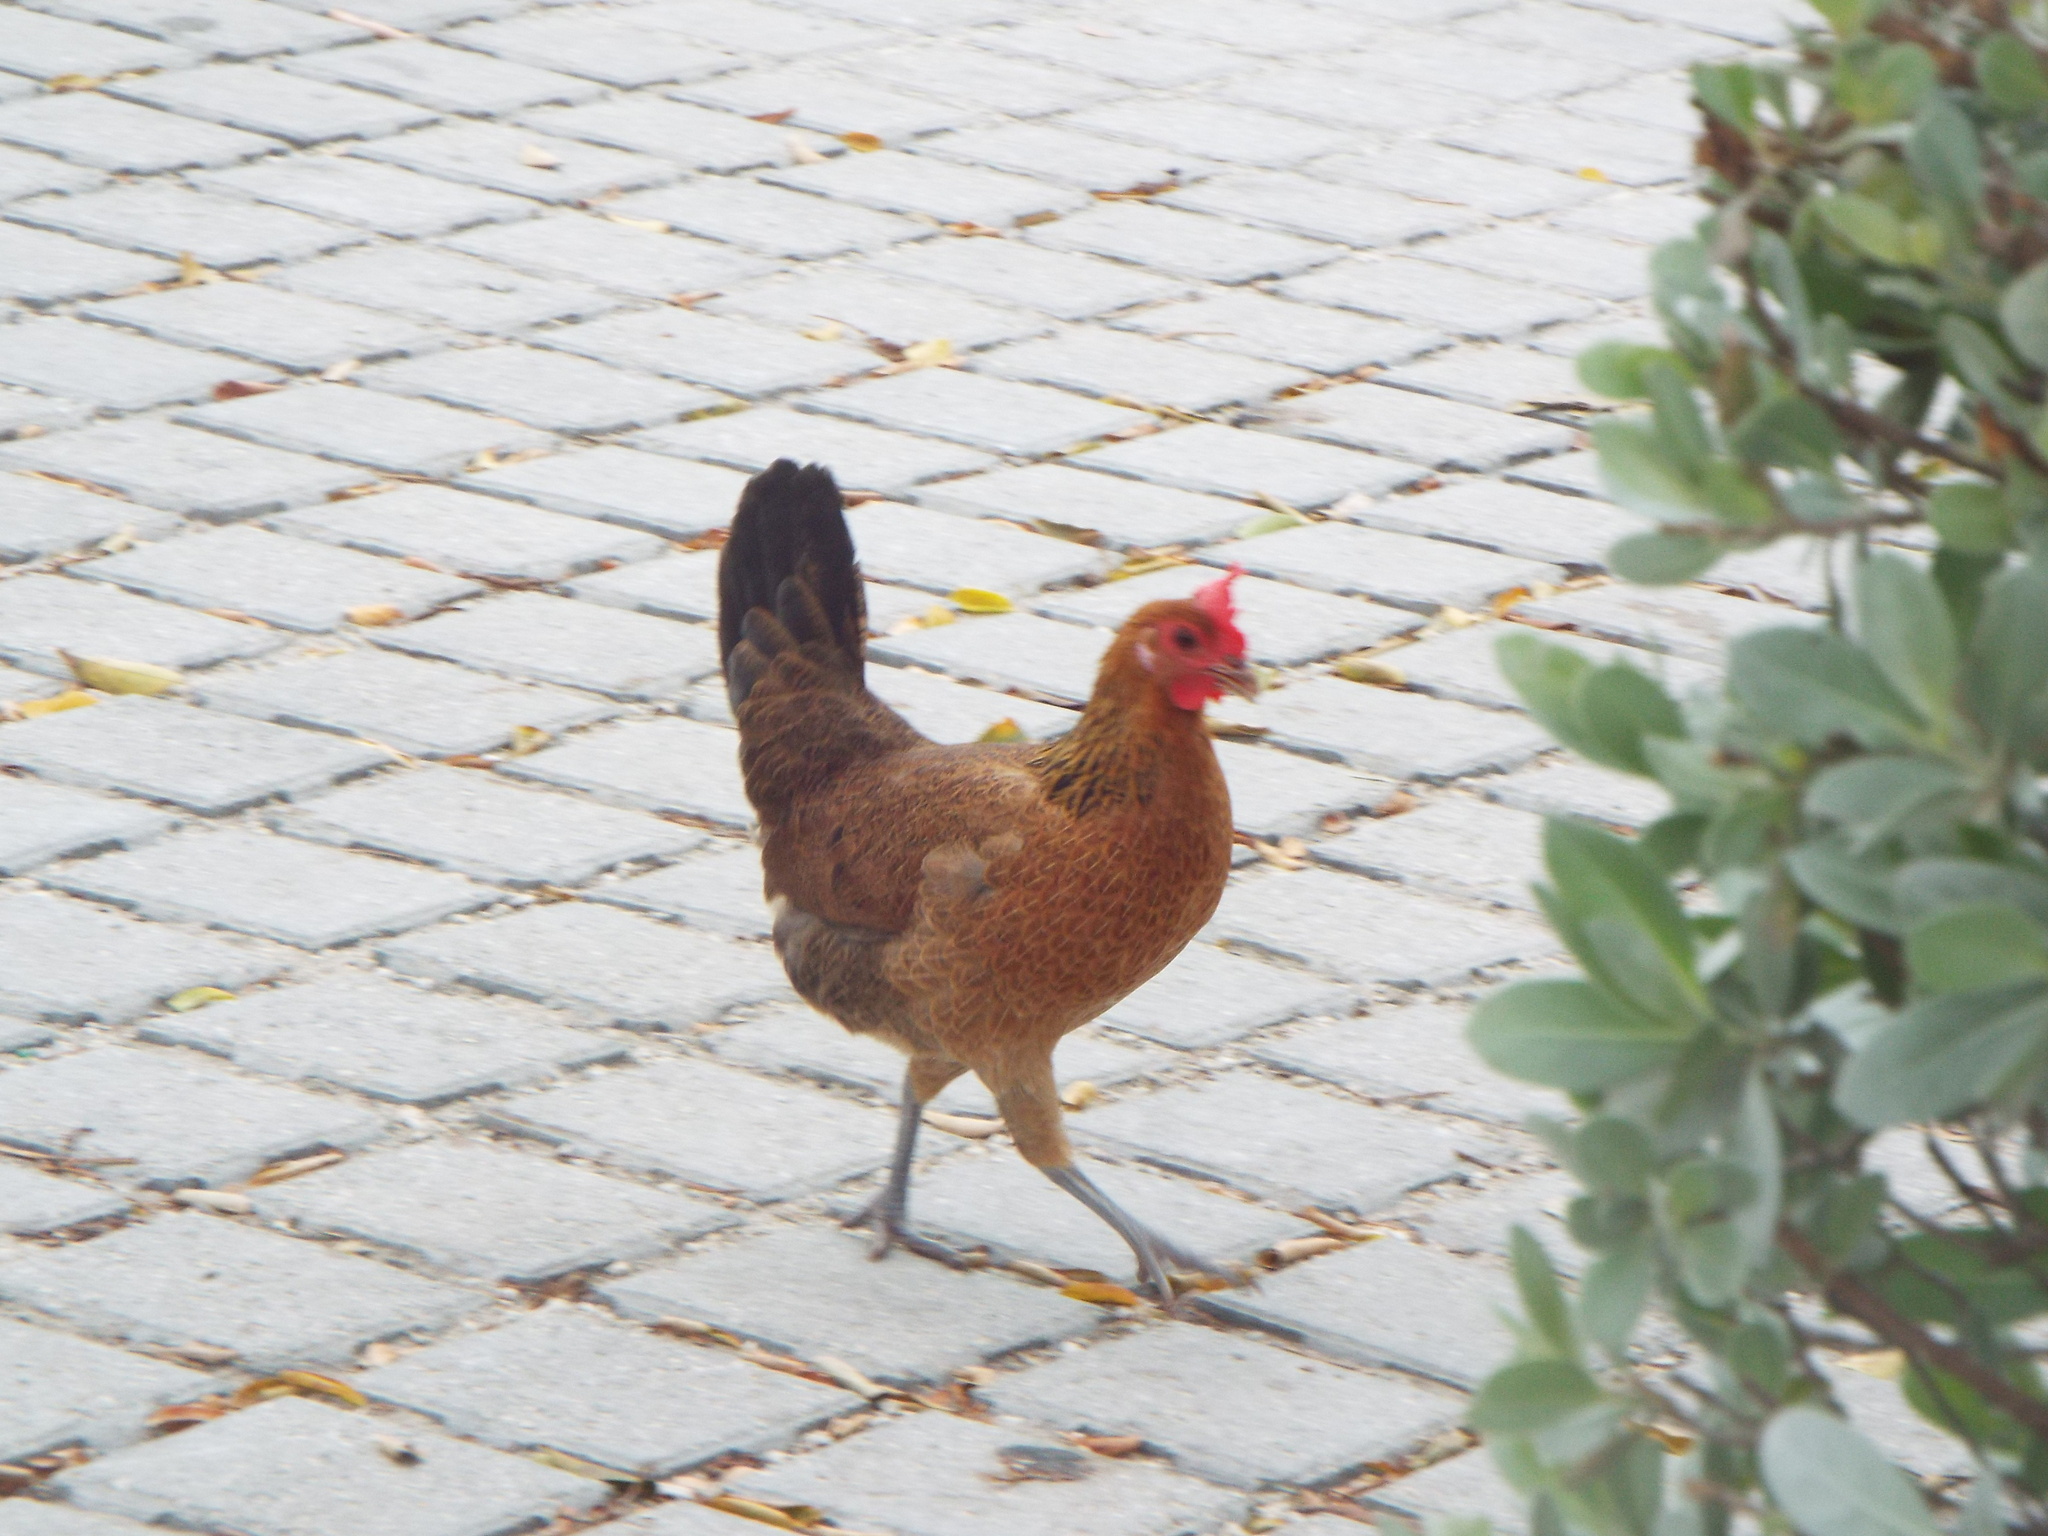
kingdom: Animalia
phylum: Chordata
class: Aves
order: Galliformes
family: Phasianidae
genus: Gallus
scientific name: Gallus gallus
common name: Red junglefowl
